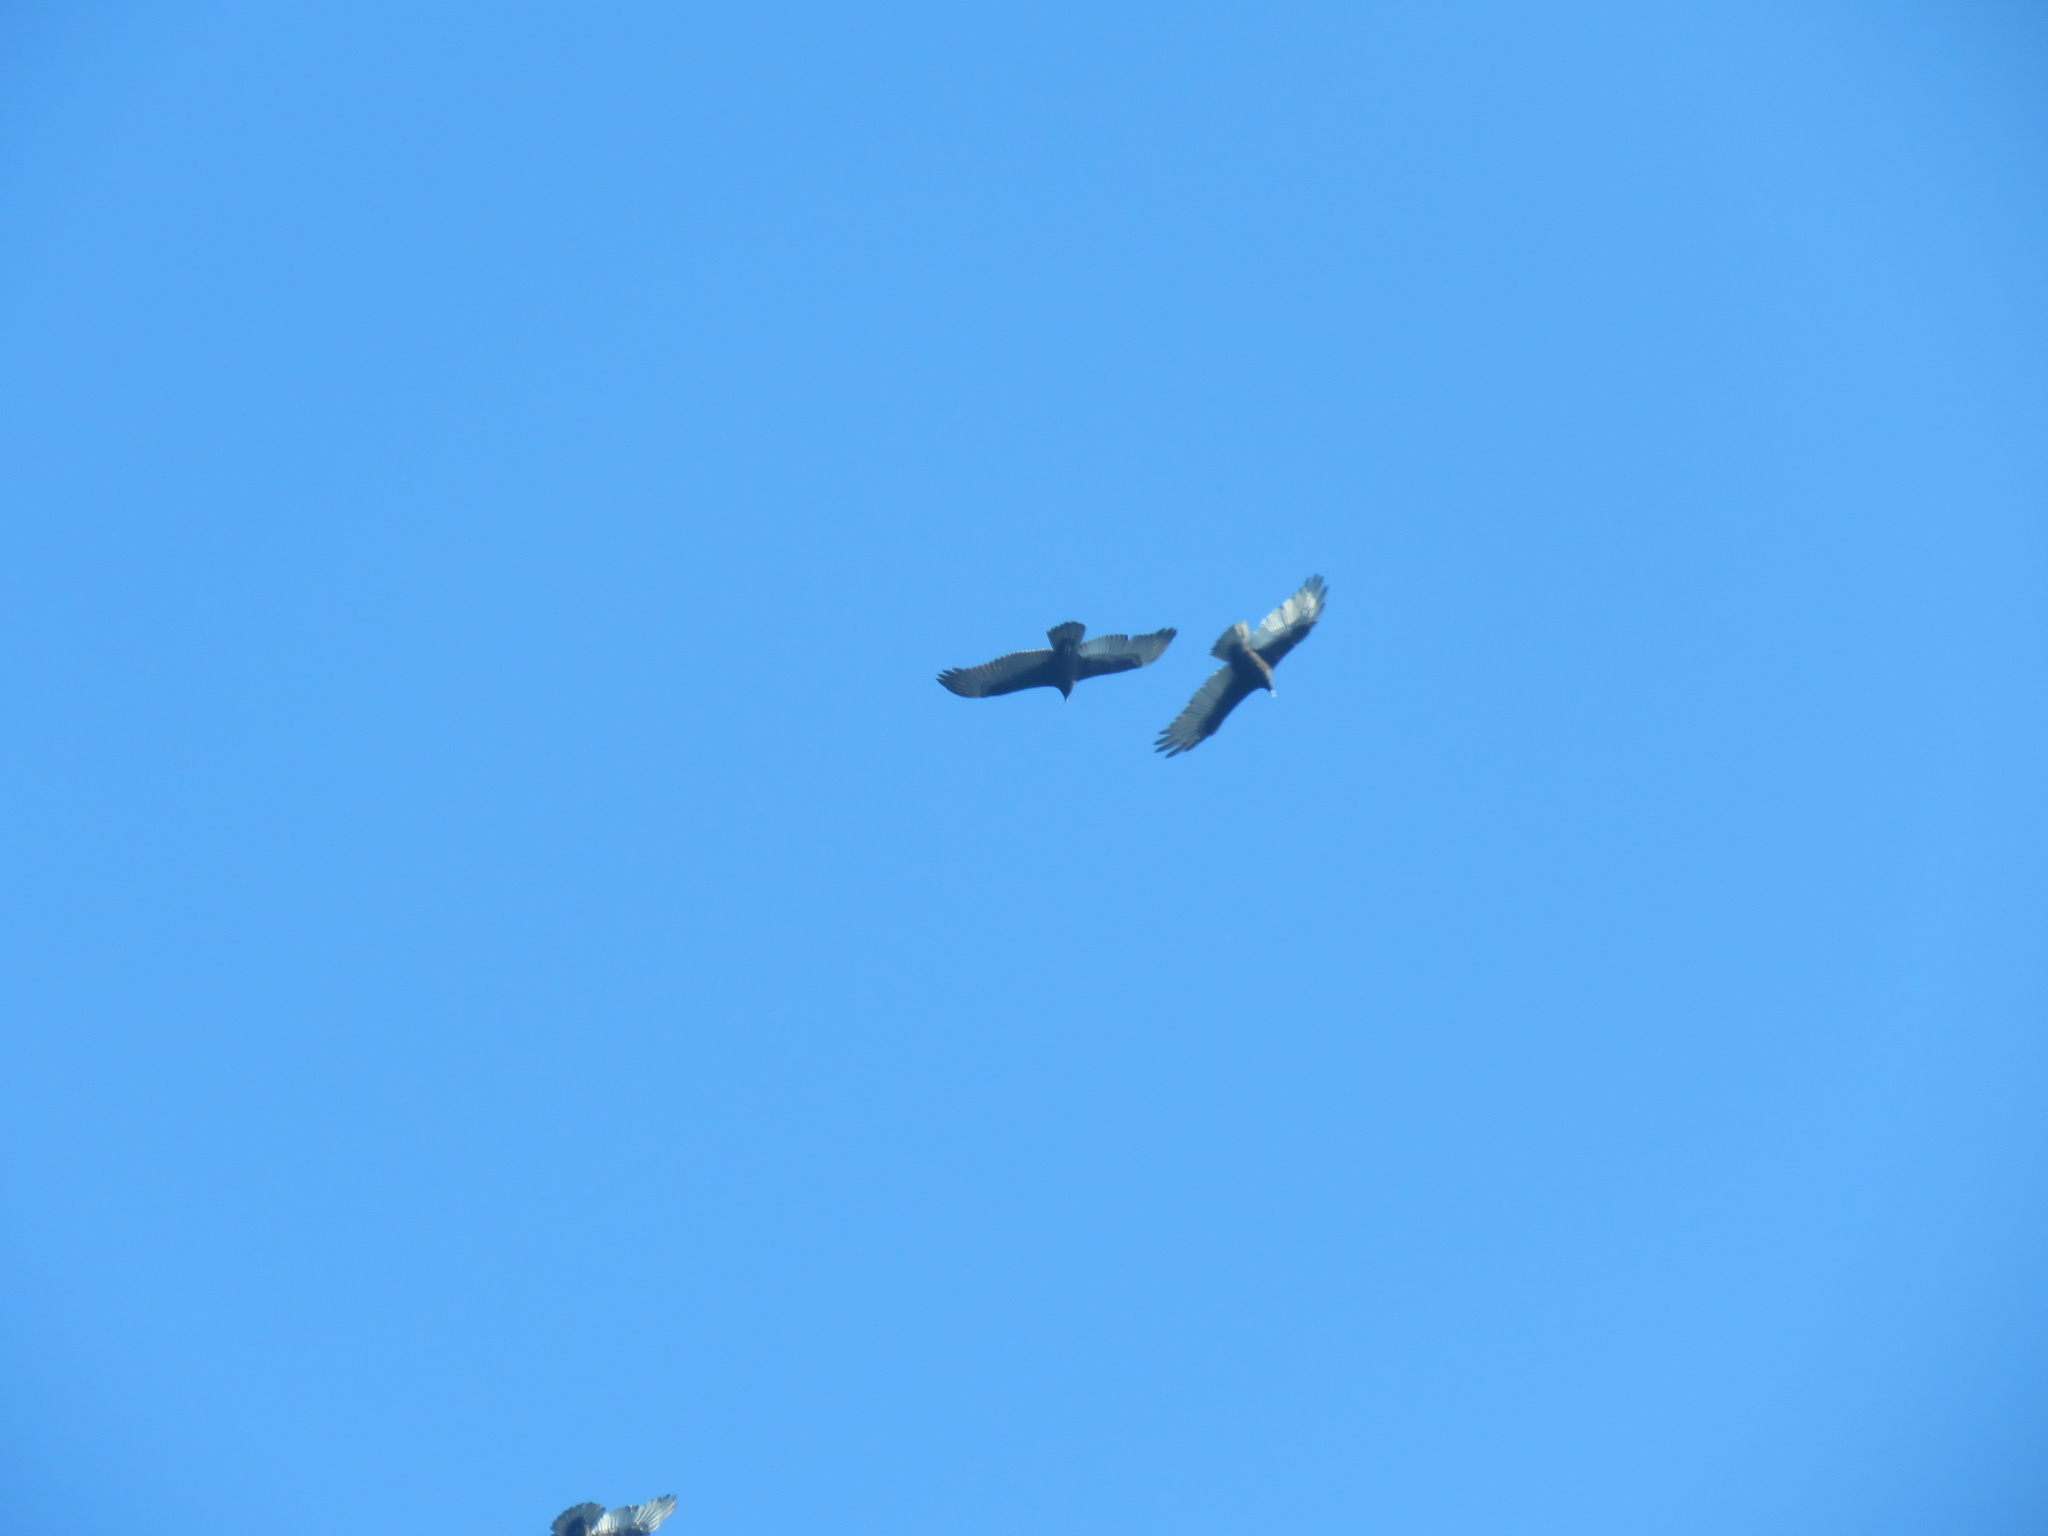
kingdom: Animalia
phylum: Chordata
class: Aves
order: Accipitriformes
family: Cathartidae
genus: Cathartes
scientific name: Cathartes aura
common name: Turkey vulture
